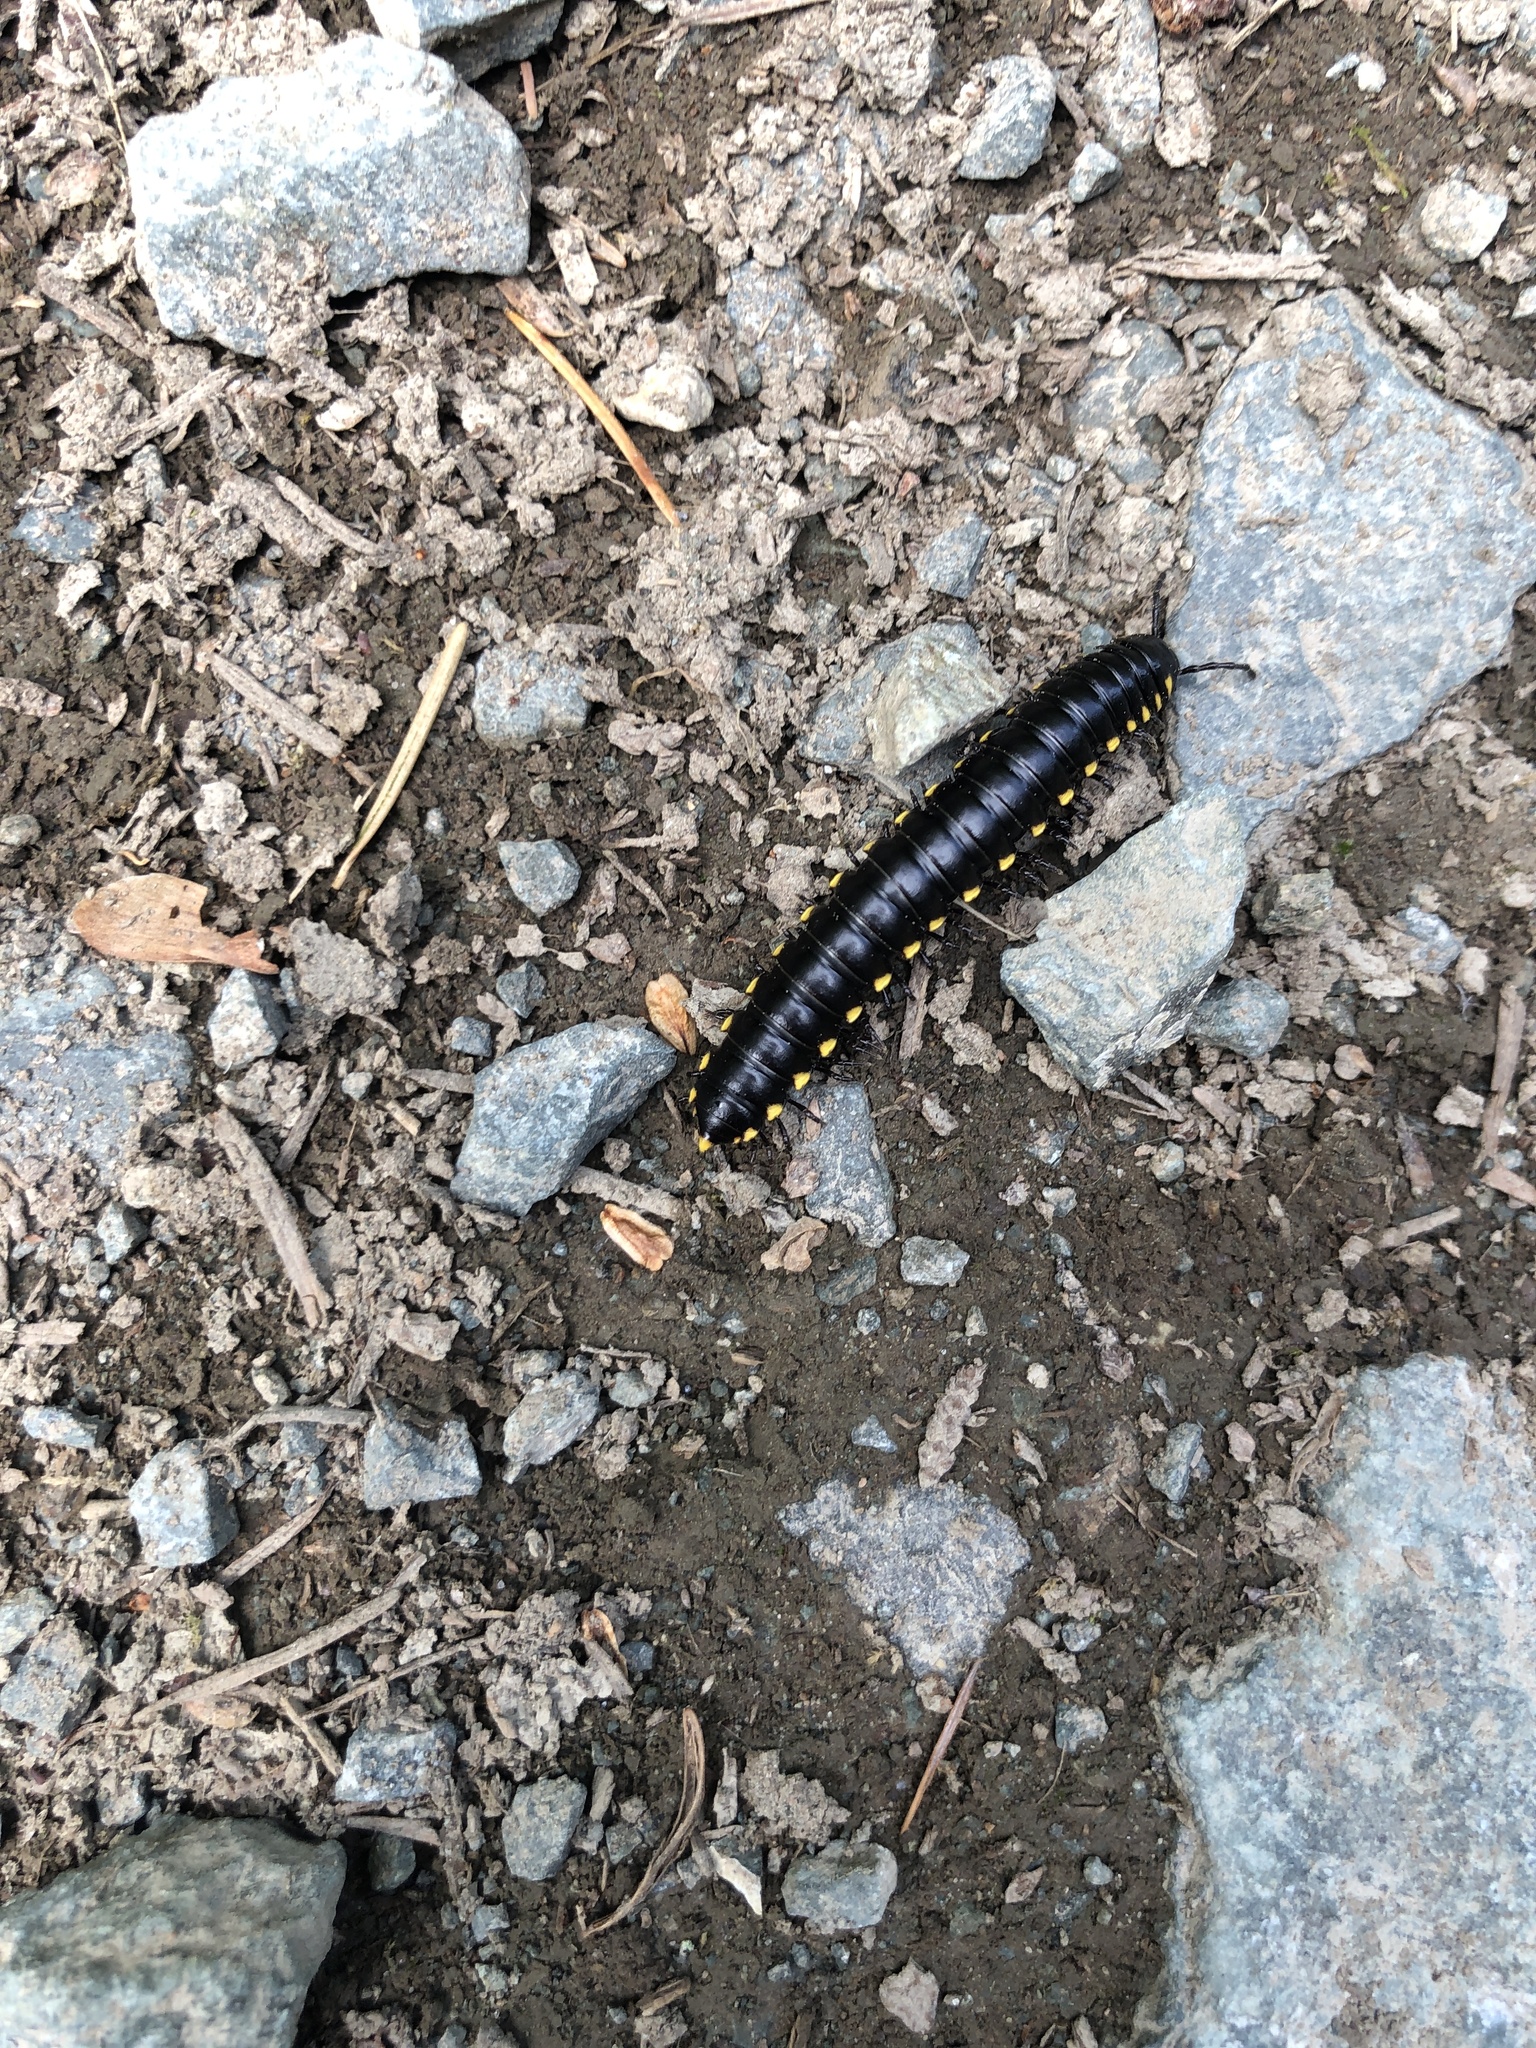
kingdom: Animalia
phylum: Arthropoda
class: Diplopoda
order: Polydesmida
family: Xystodesmidae
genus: Harpaphe
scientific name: Harpaphe haydeniana
